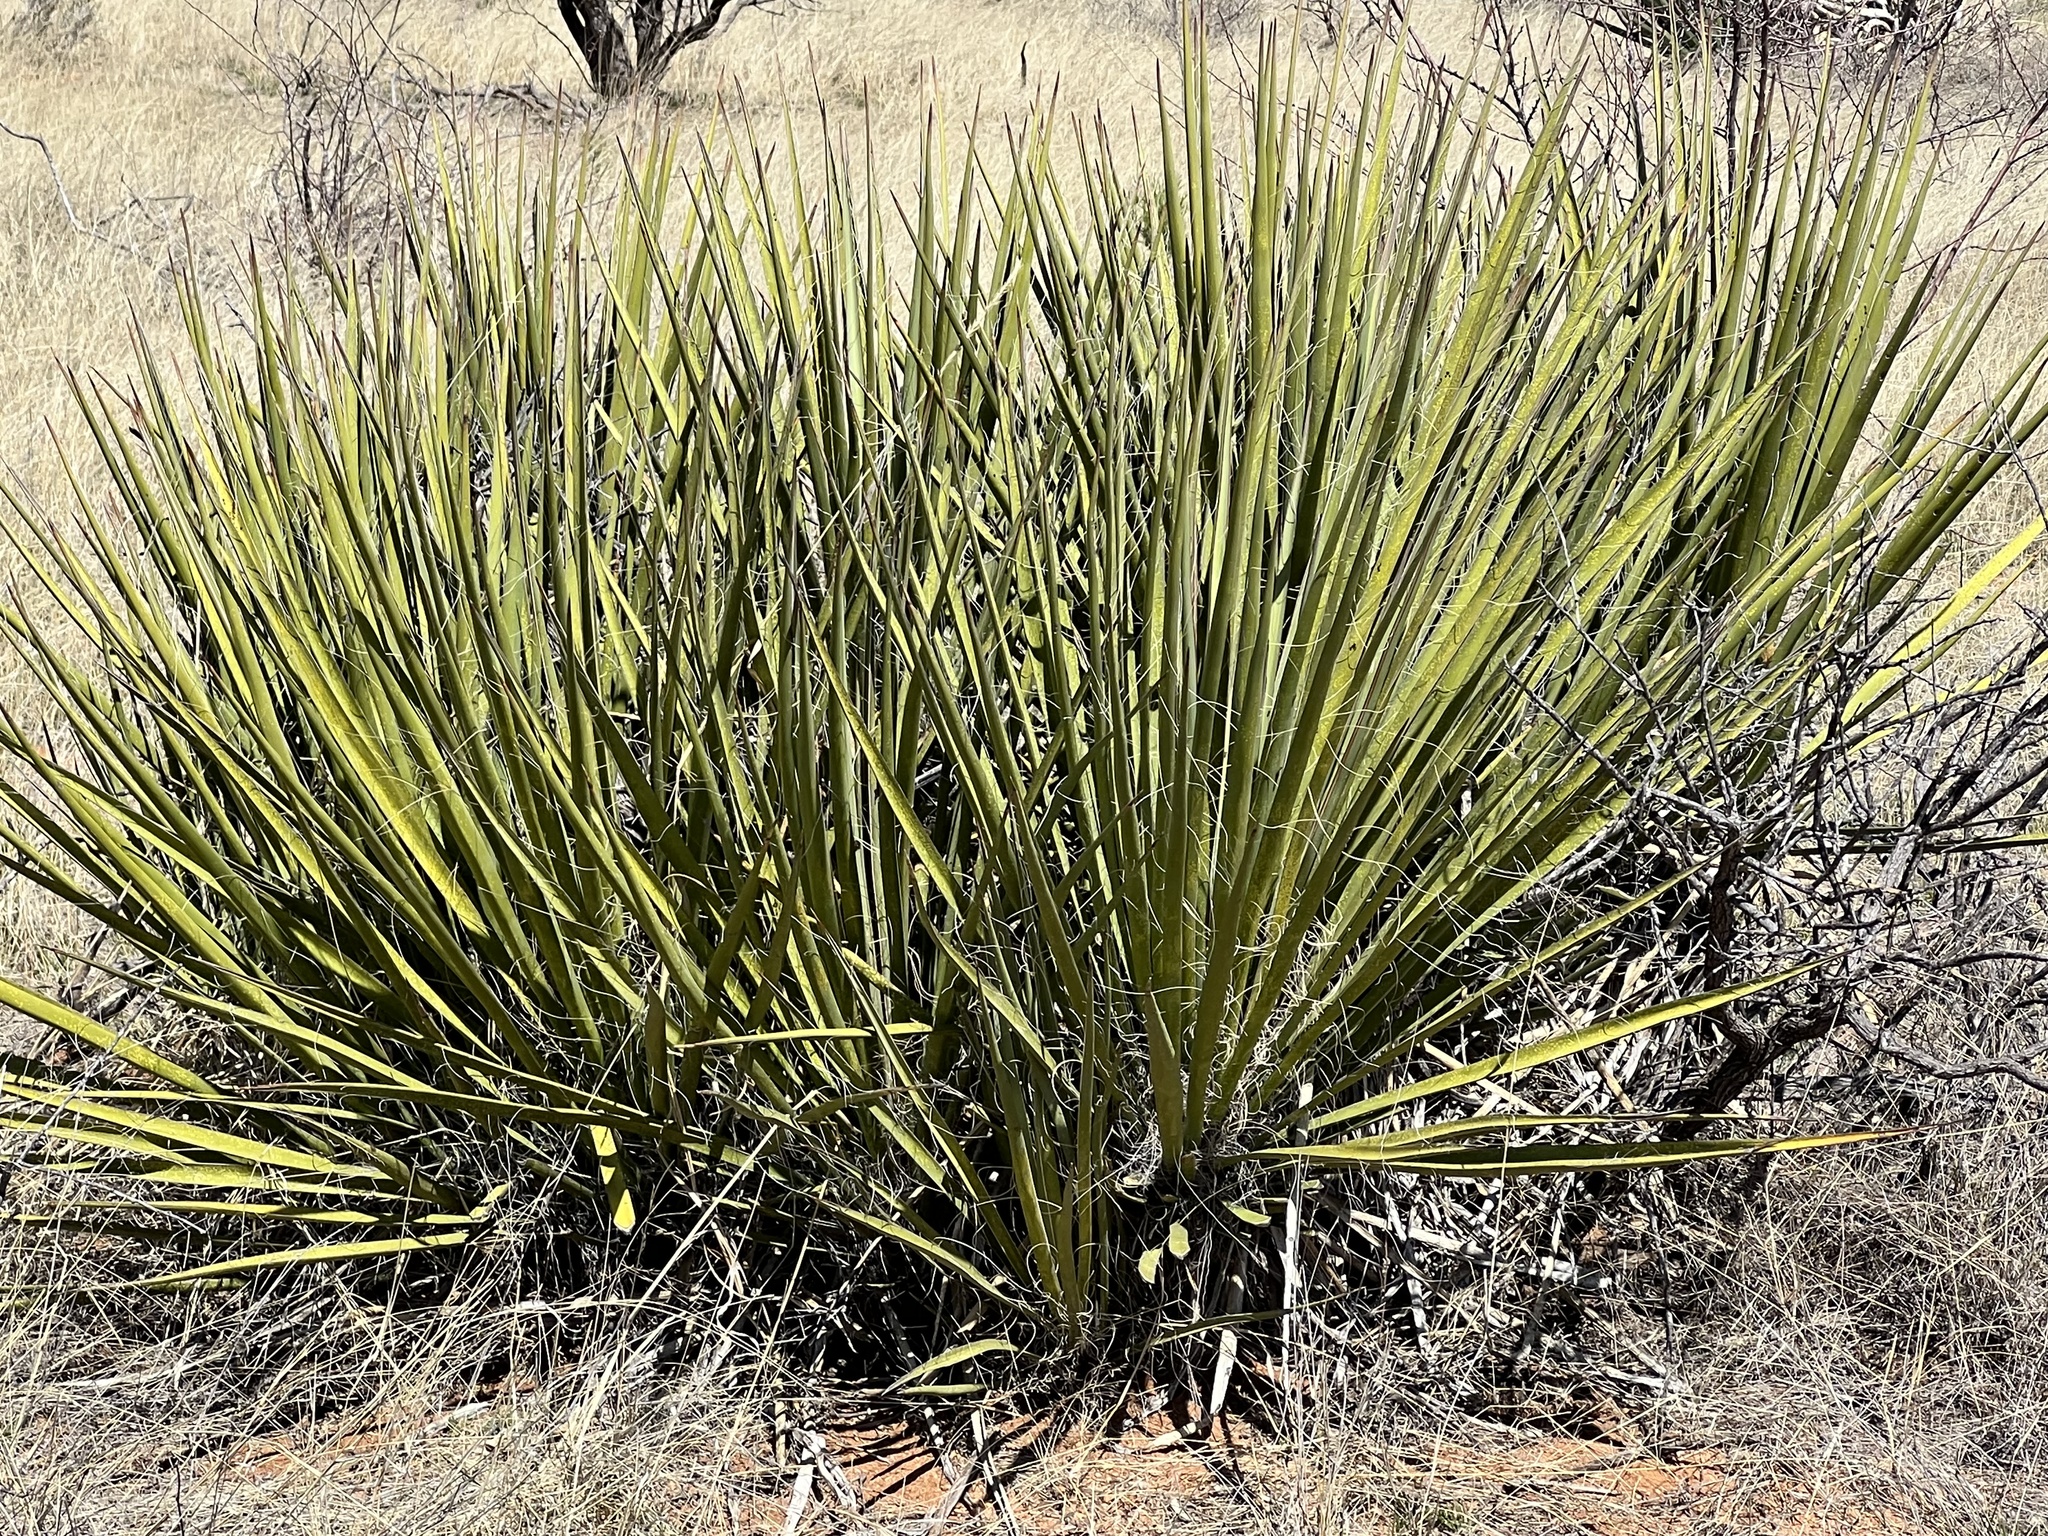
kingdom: Plantae
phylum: Tracheophyta
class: Liliopsida
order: Asparagales
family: Asparagaceae
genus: Yucca
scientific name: Yucca baccata
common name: Banana yucca
